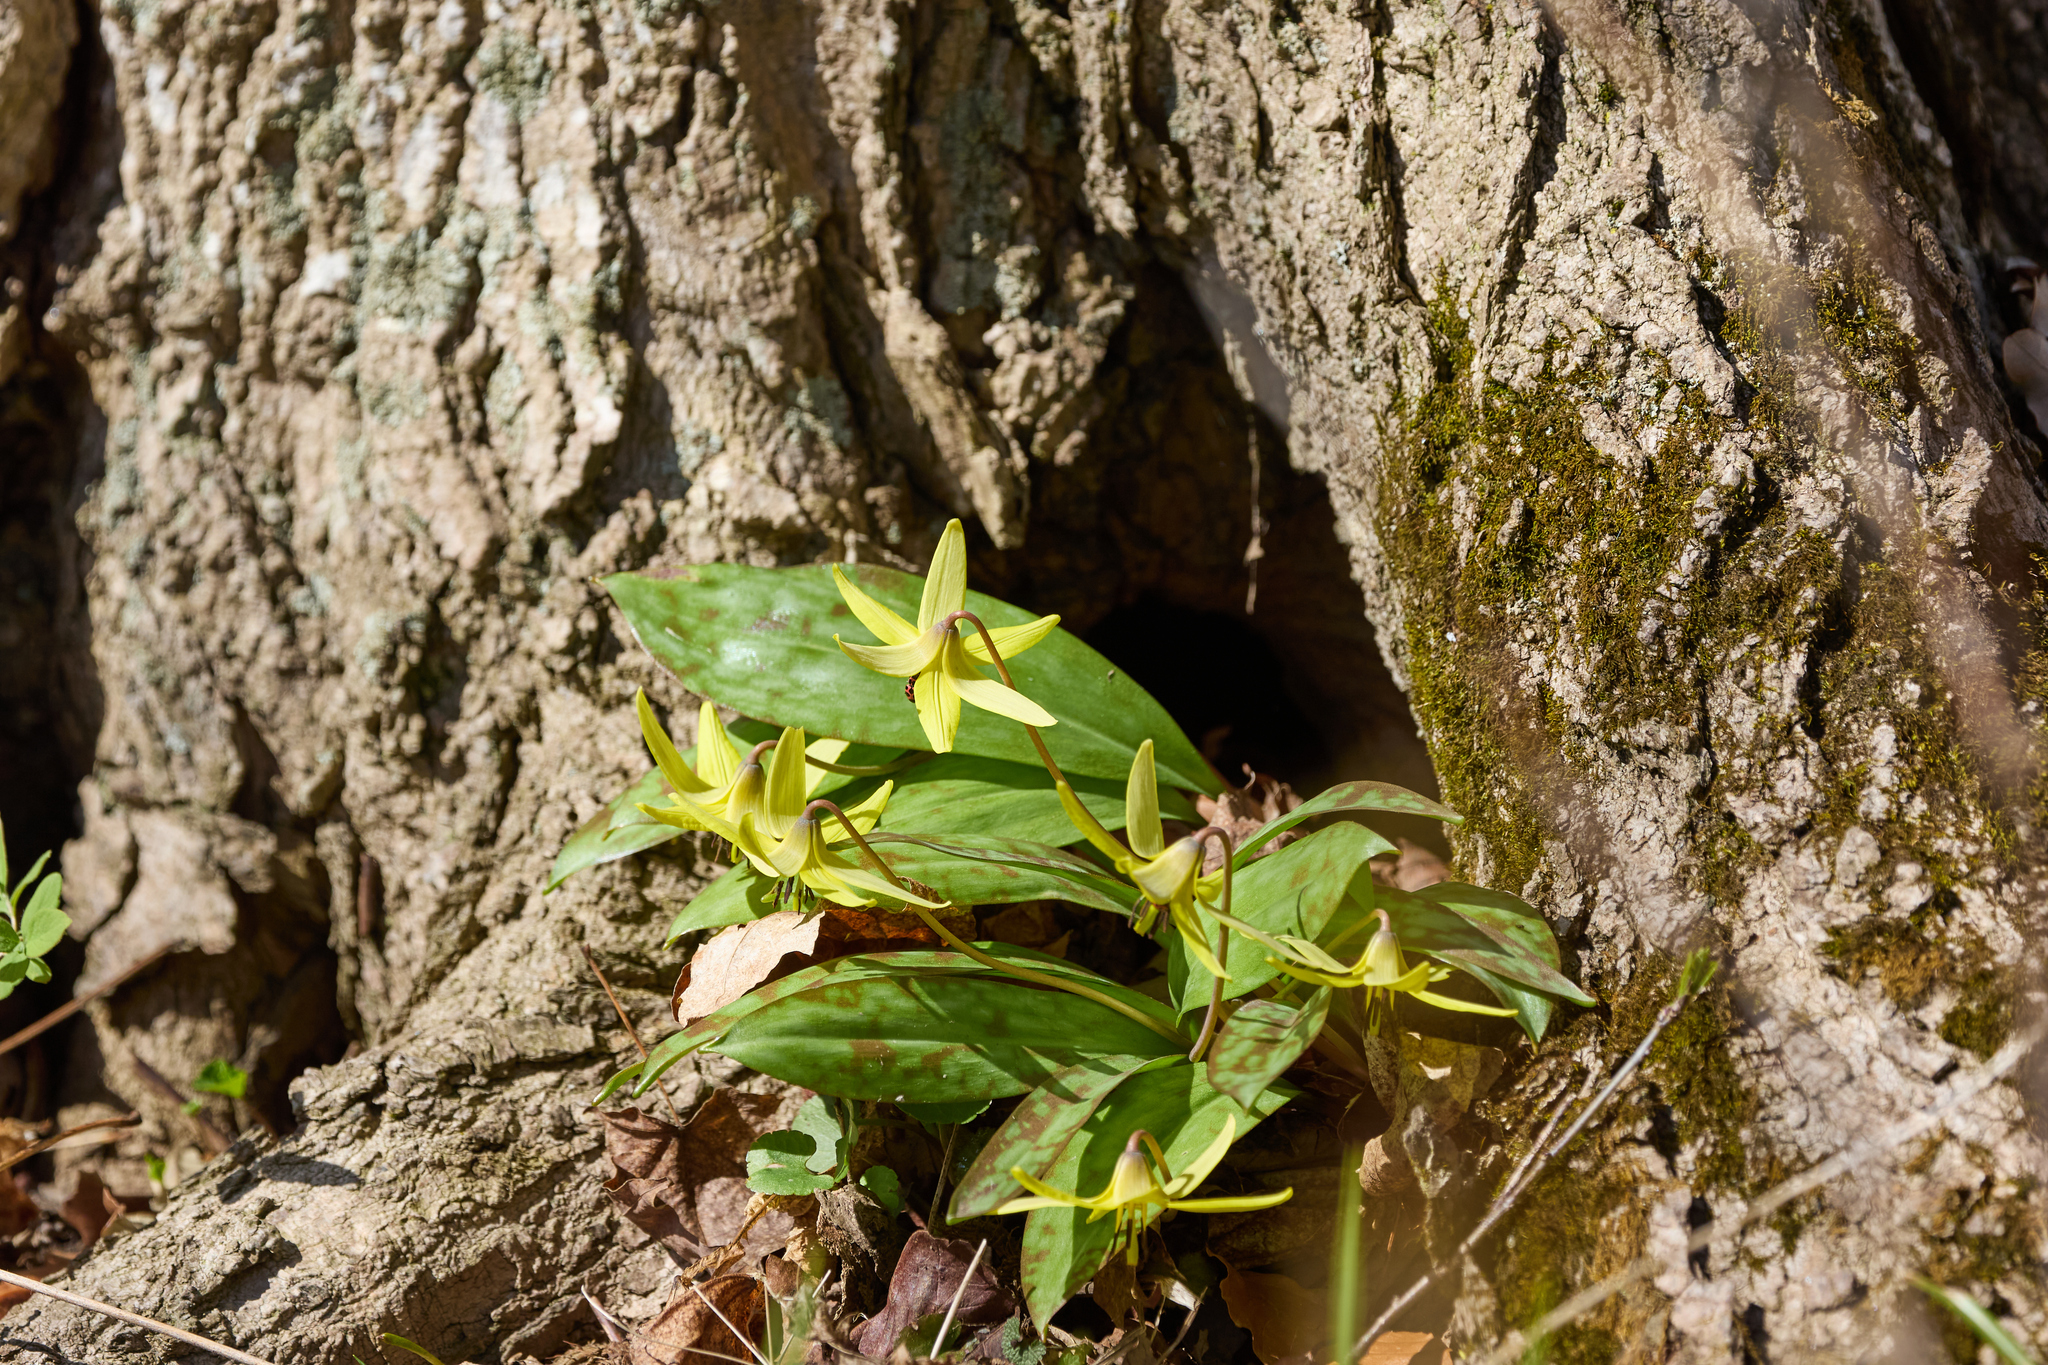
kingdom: Plantae
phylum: Tracheophyta
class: Liliopsida
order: Liliales
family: Liliaceae
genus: Erythronium
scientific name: Erythronium americanum
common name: Yellow adder's-tongue
